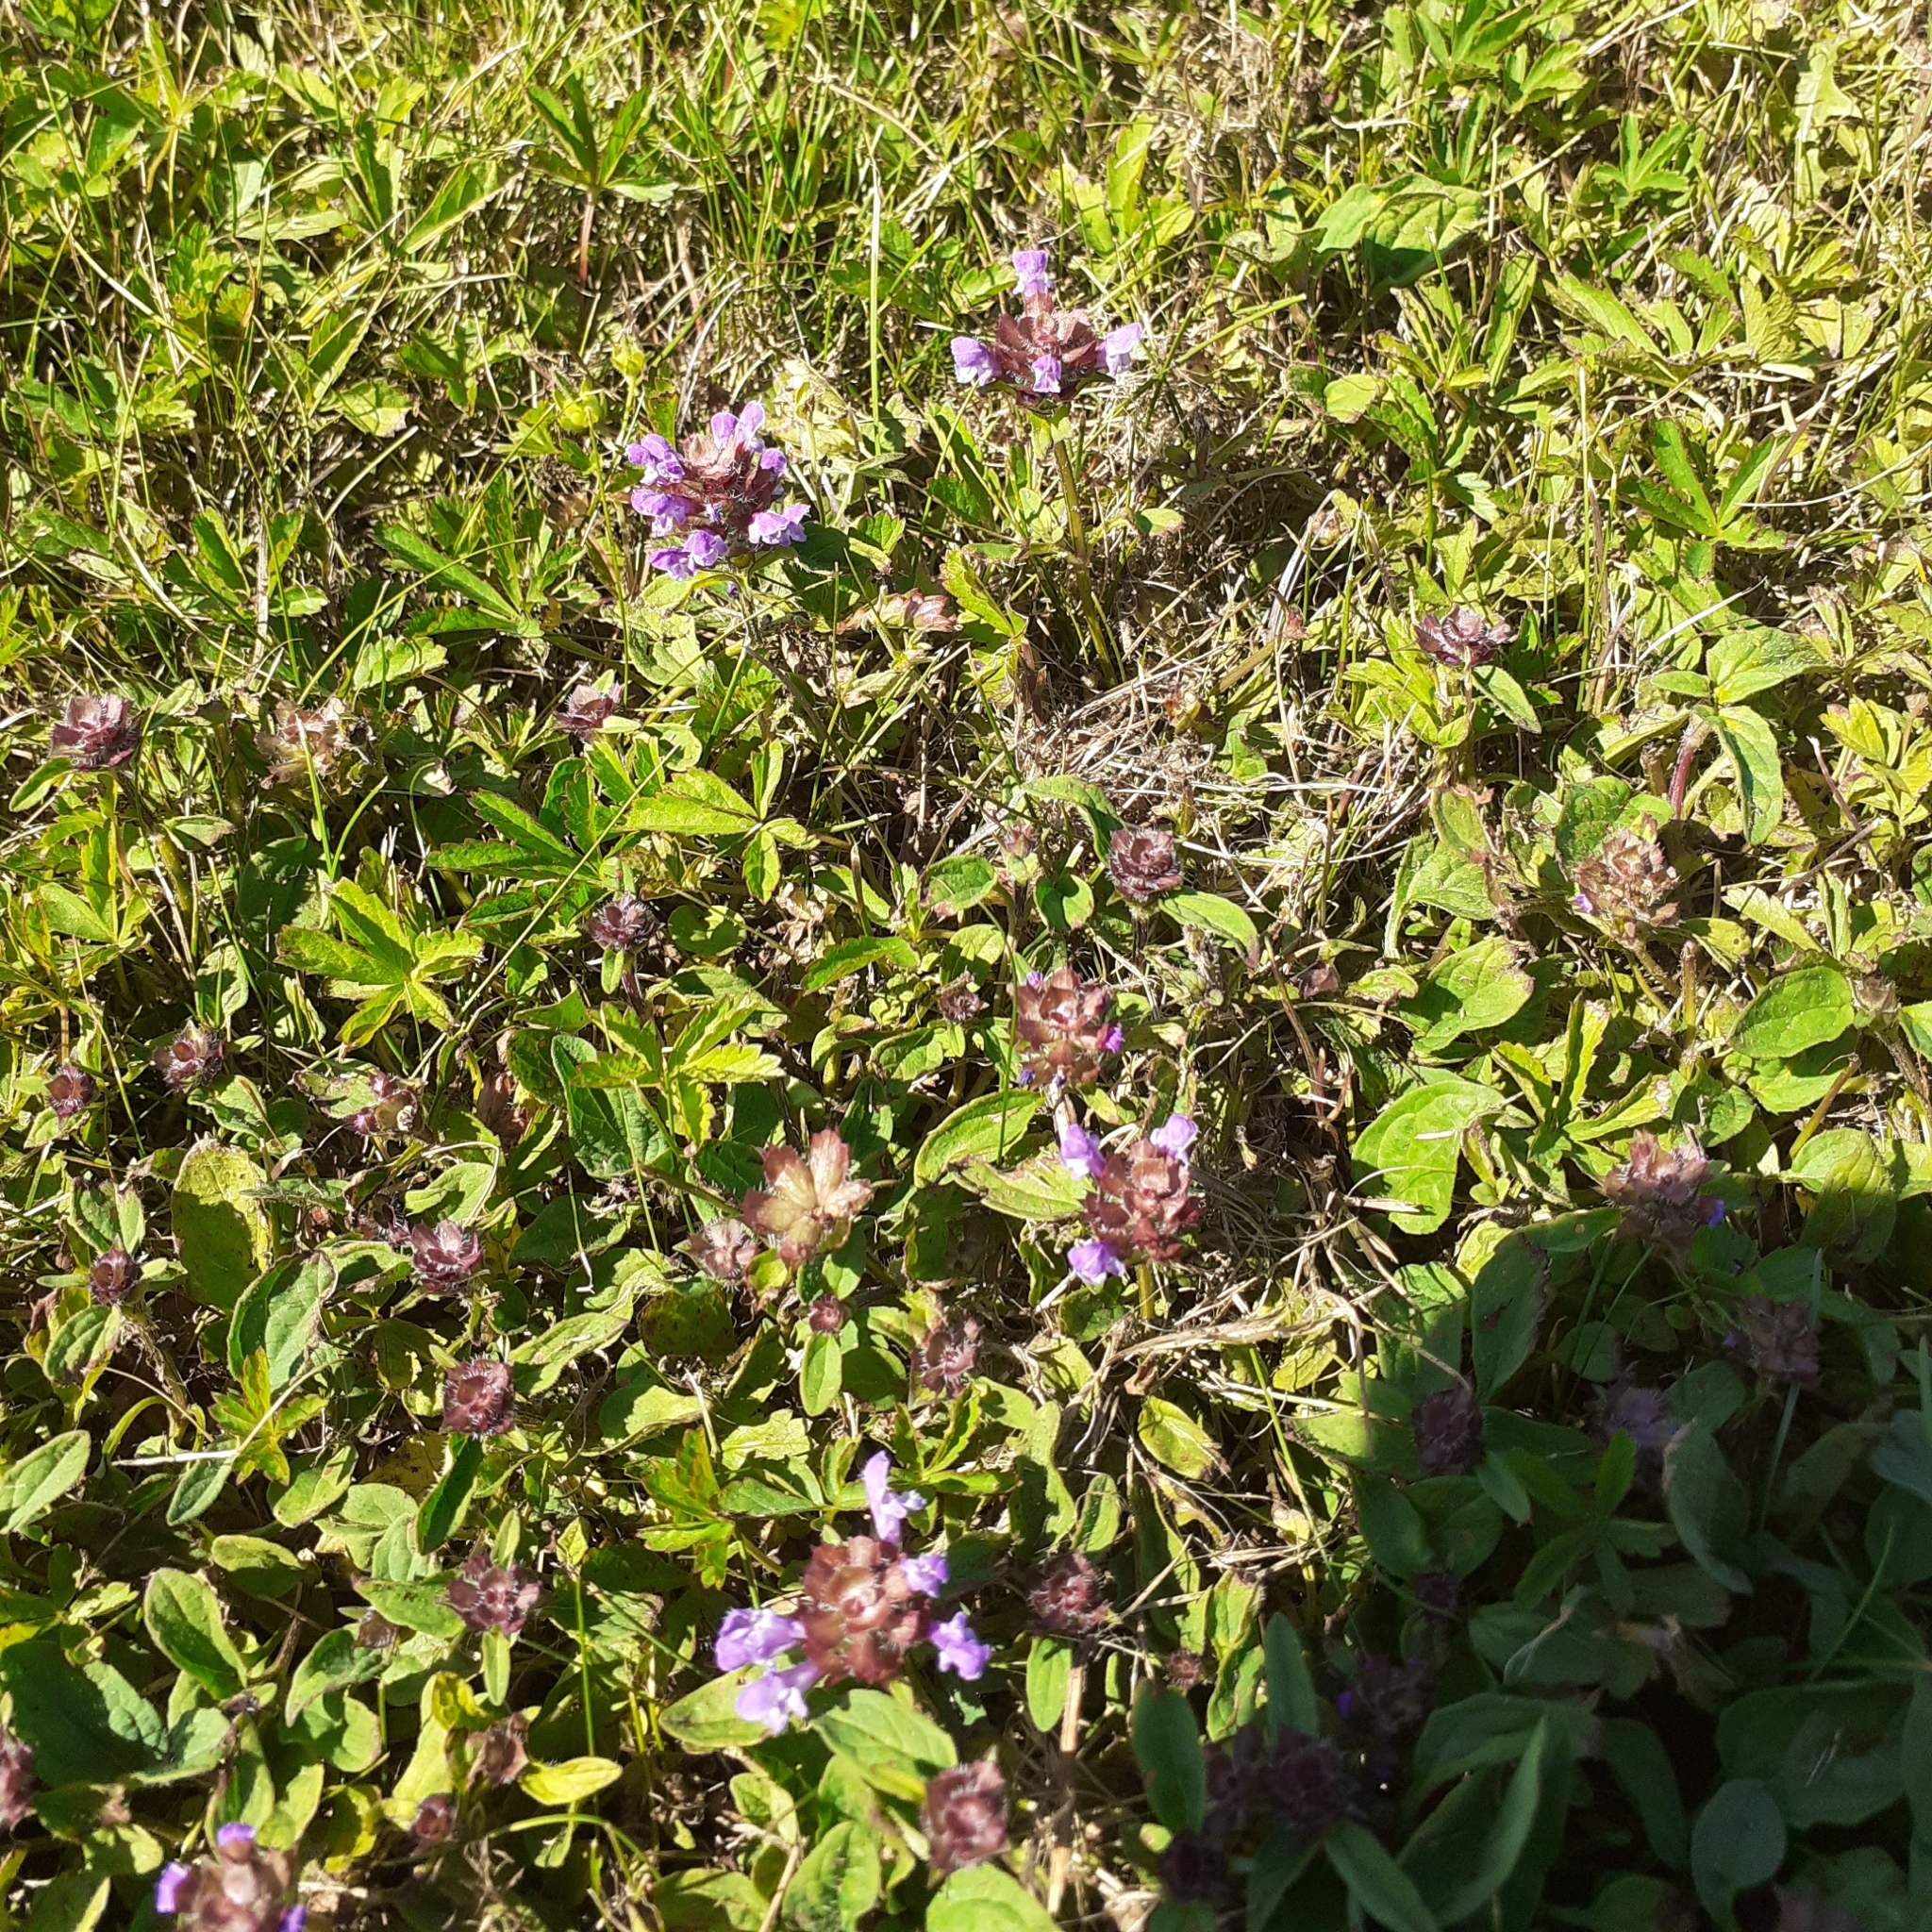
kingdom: Plantae
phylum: Tracheophyta
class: Magnoliopsida
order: Lamiales
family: Lamiaceae
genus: Prunella
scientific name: Prunella vulgaris
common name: Heal-all
